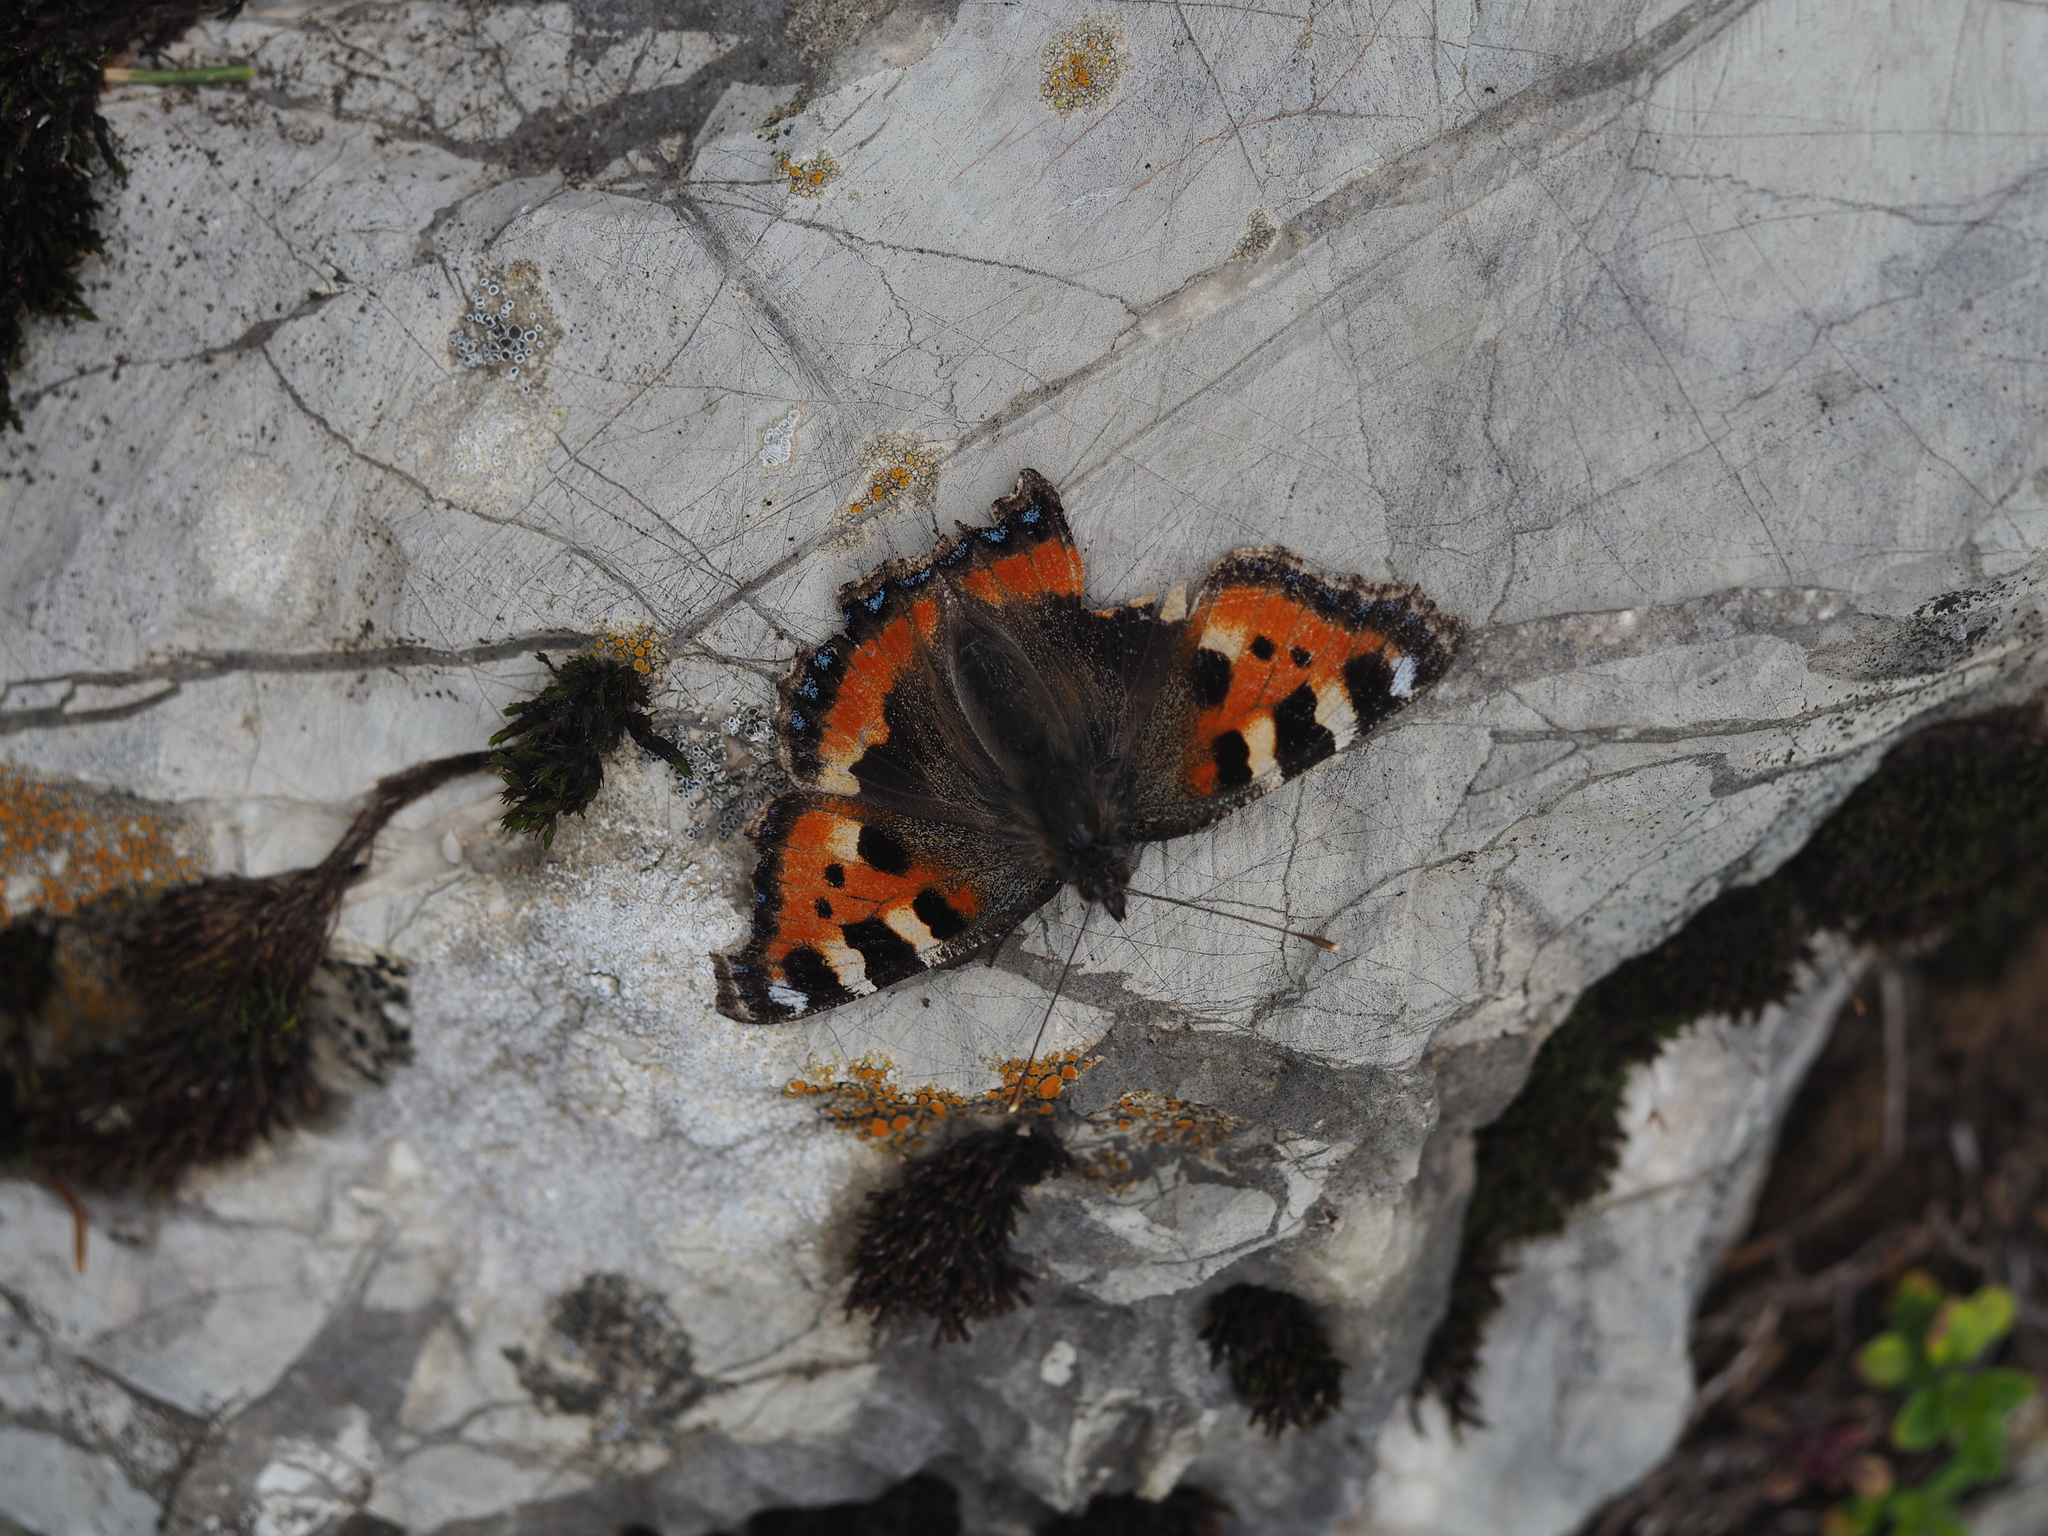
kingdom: Animalia
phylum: Arthropoda
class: Insecta
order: Lepidoptera
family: Nymphalidae
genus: Aglais
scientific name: Aglais urticae
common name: Small tortoiseshell
